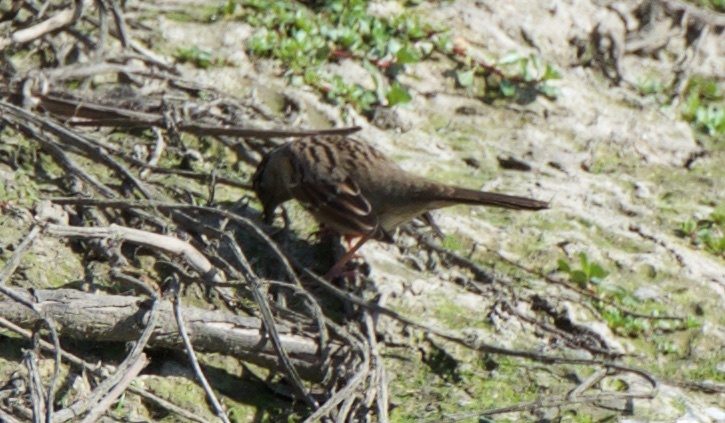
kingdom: Animalia
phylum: Chordata
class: Aves
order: Passeriformes
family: Passerellidae
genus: Zonotrichia
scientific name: Zonotrichia atricapilla
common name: Golden-crowned sparrow
